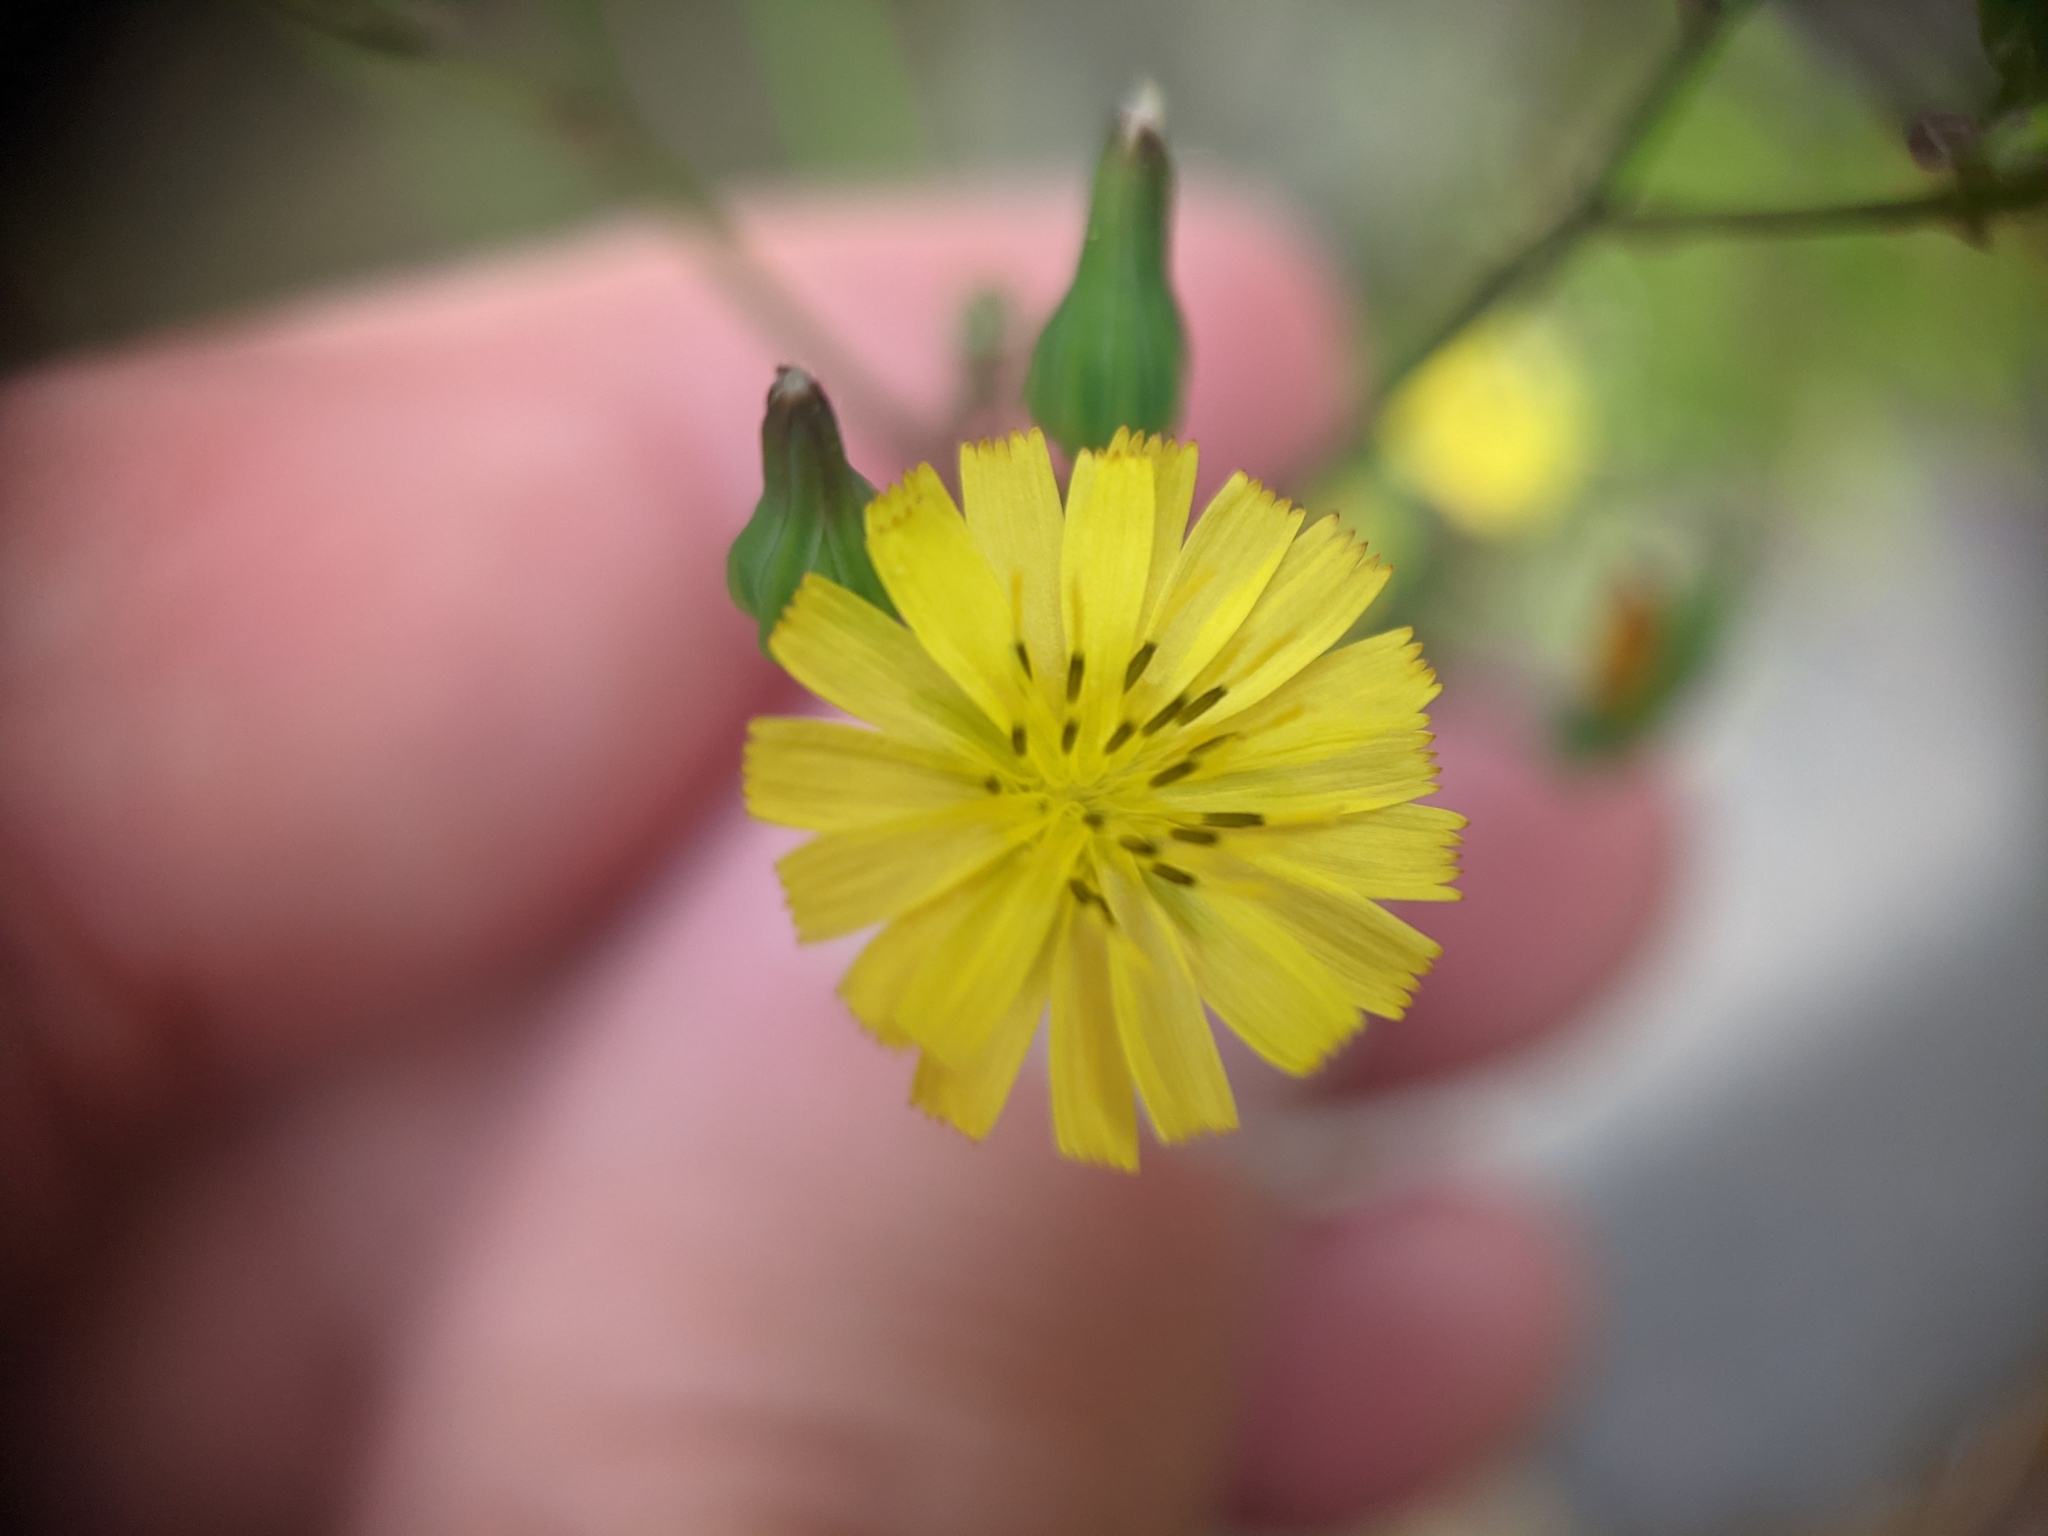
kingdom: Plantae
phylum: Tracheophyta
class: Magnoliopsida
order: Asterales
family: Asteraceae
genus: Youngia
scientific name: Youngia japonica
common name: Oriental false hawksbeard
